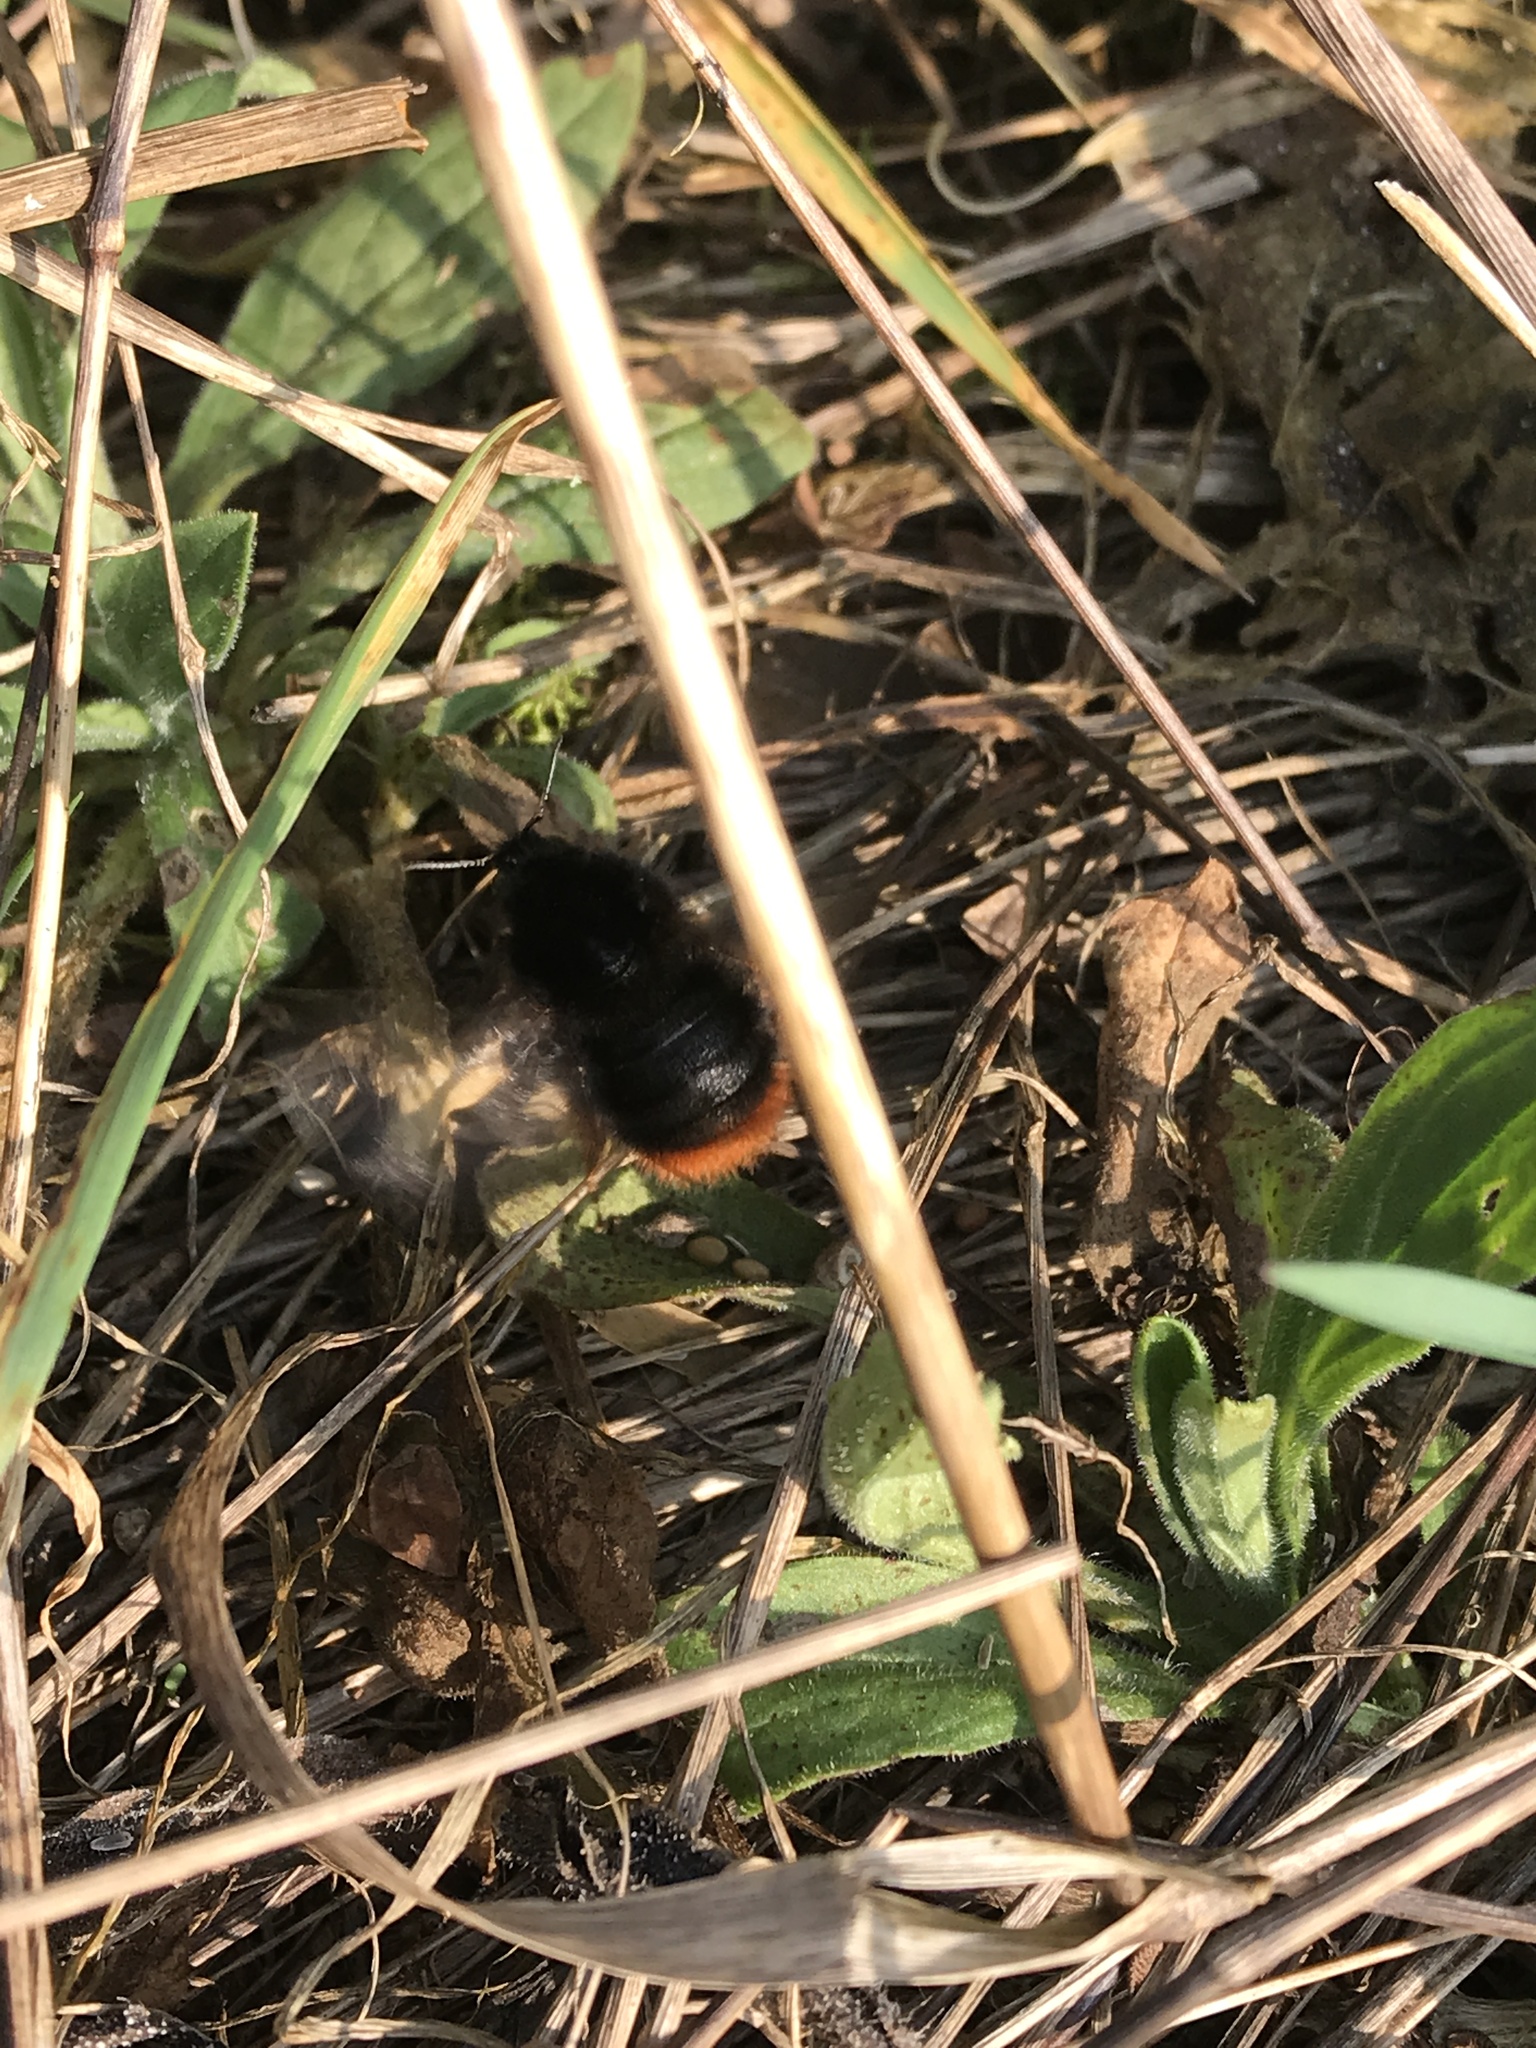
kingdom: Animalia
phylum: Arthropoda
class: Insecta
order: Hymenoptera
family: Apidae
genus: Bombus
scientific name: Bombus lapidarius
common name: Large red-tailed humble-bee
